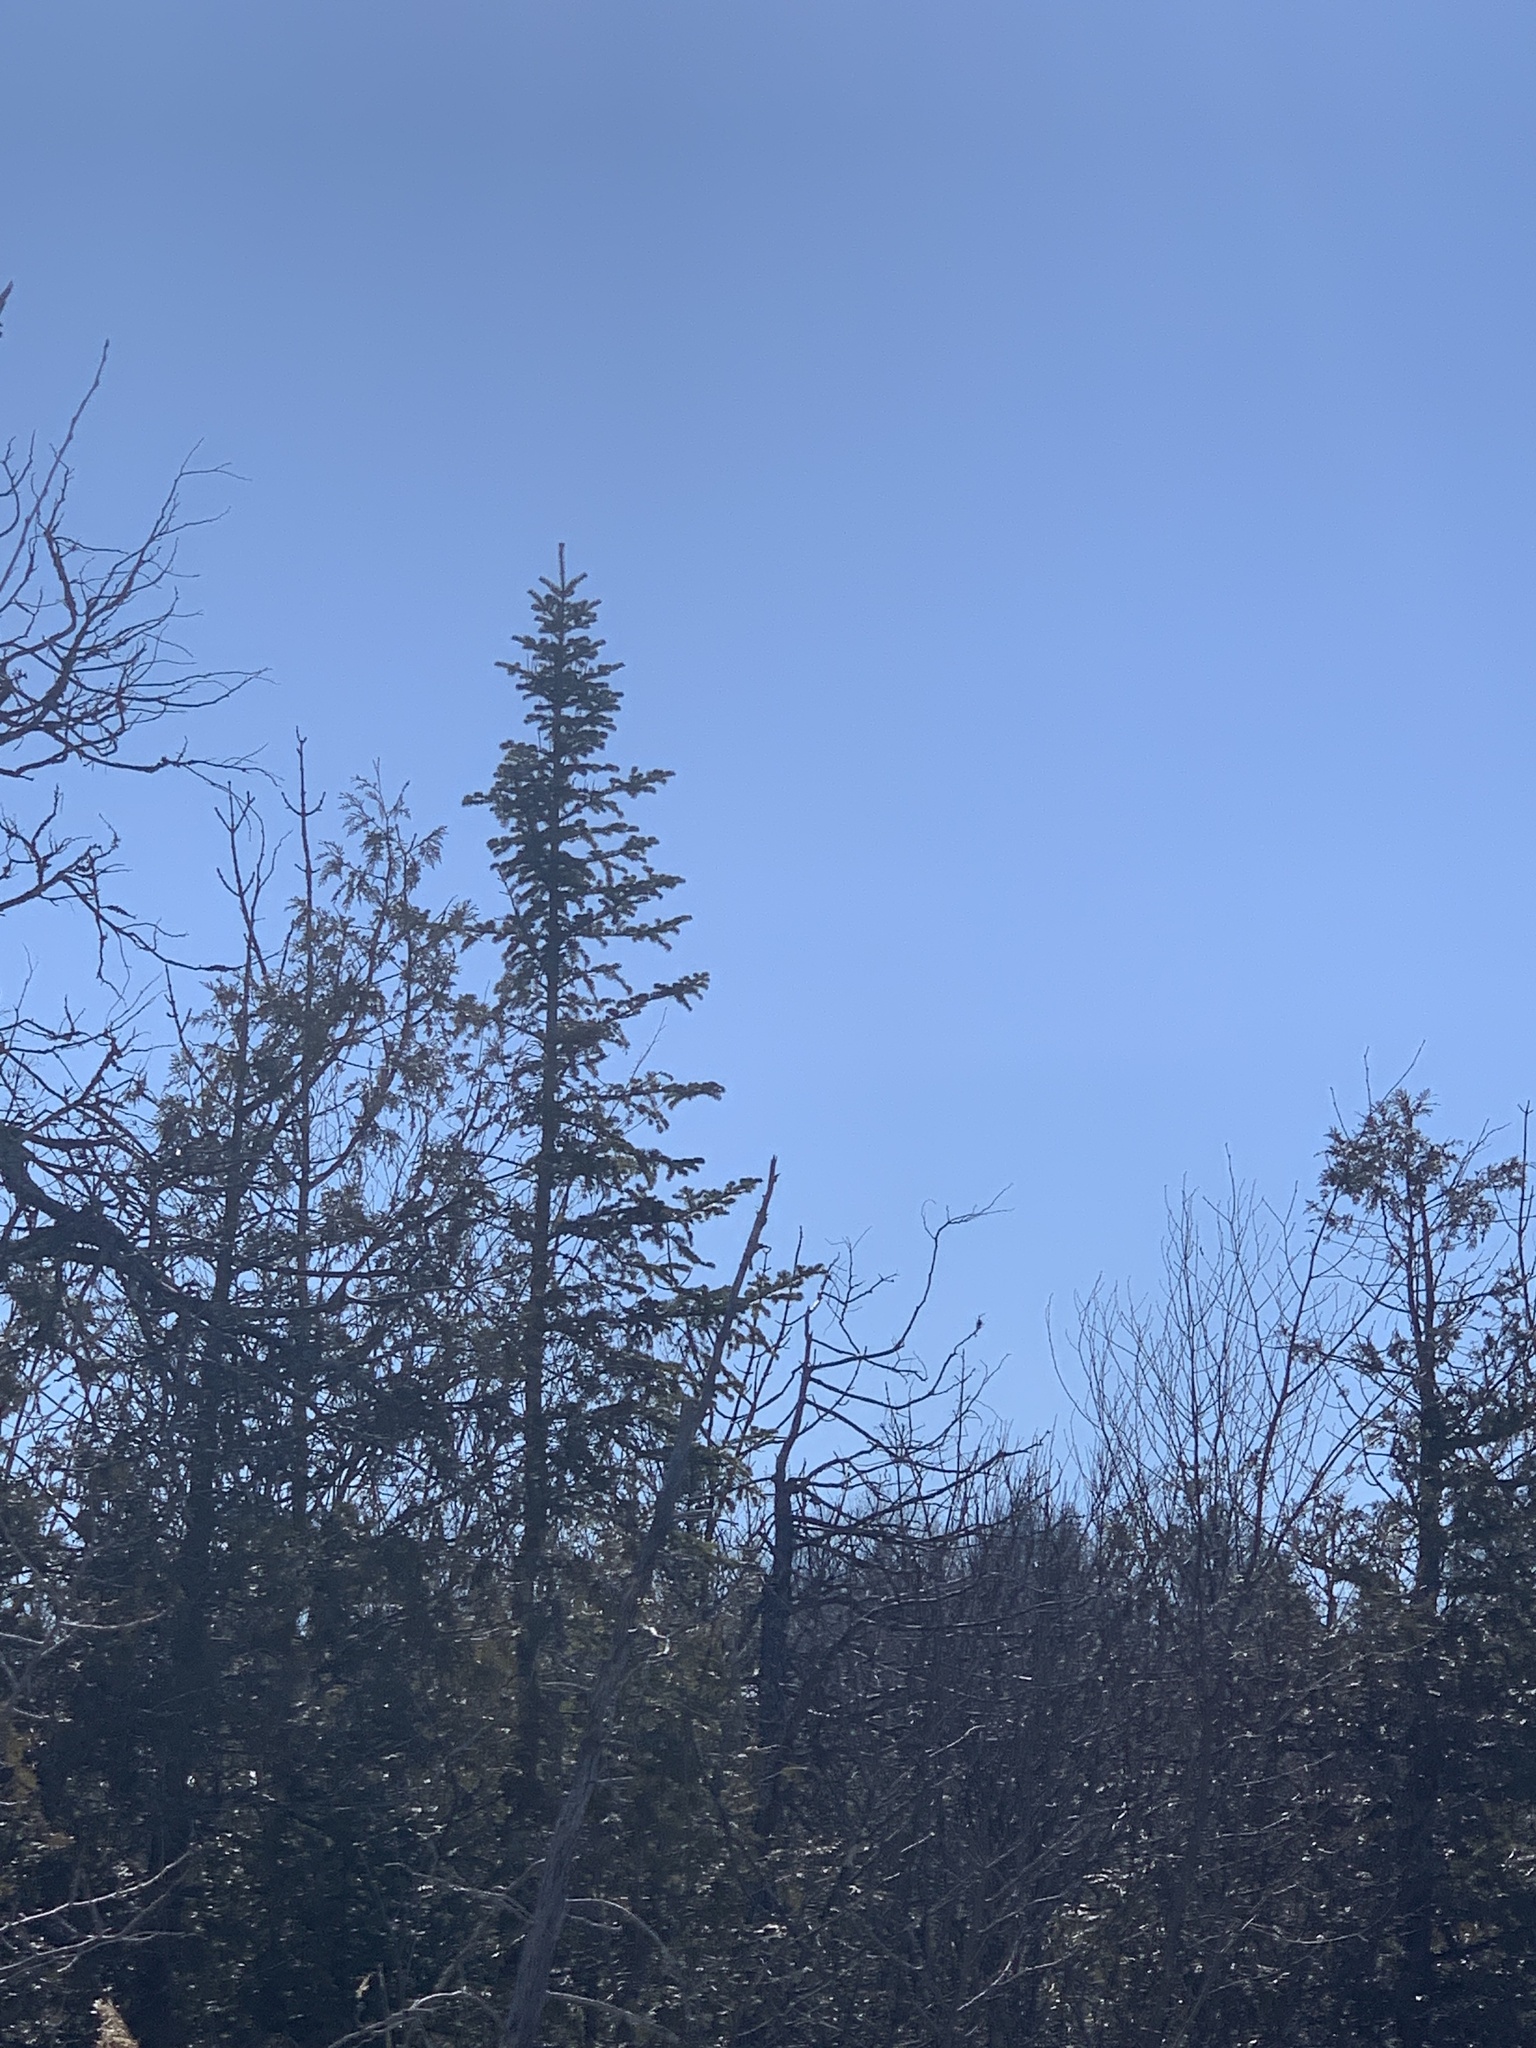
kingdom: Plantae
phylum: Tracheophyta
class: Pinopsida
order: Pinales
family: Pinaceae
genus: Abies
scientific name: Abies balsamea
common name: Balsam fir
